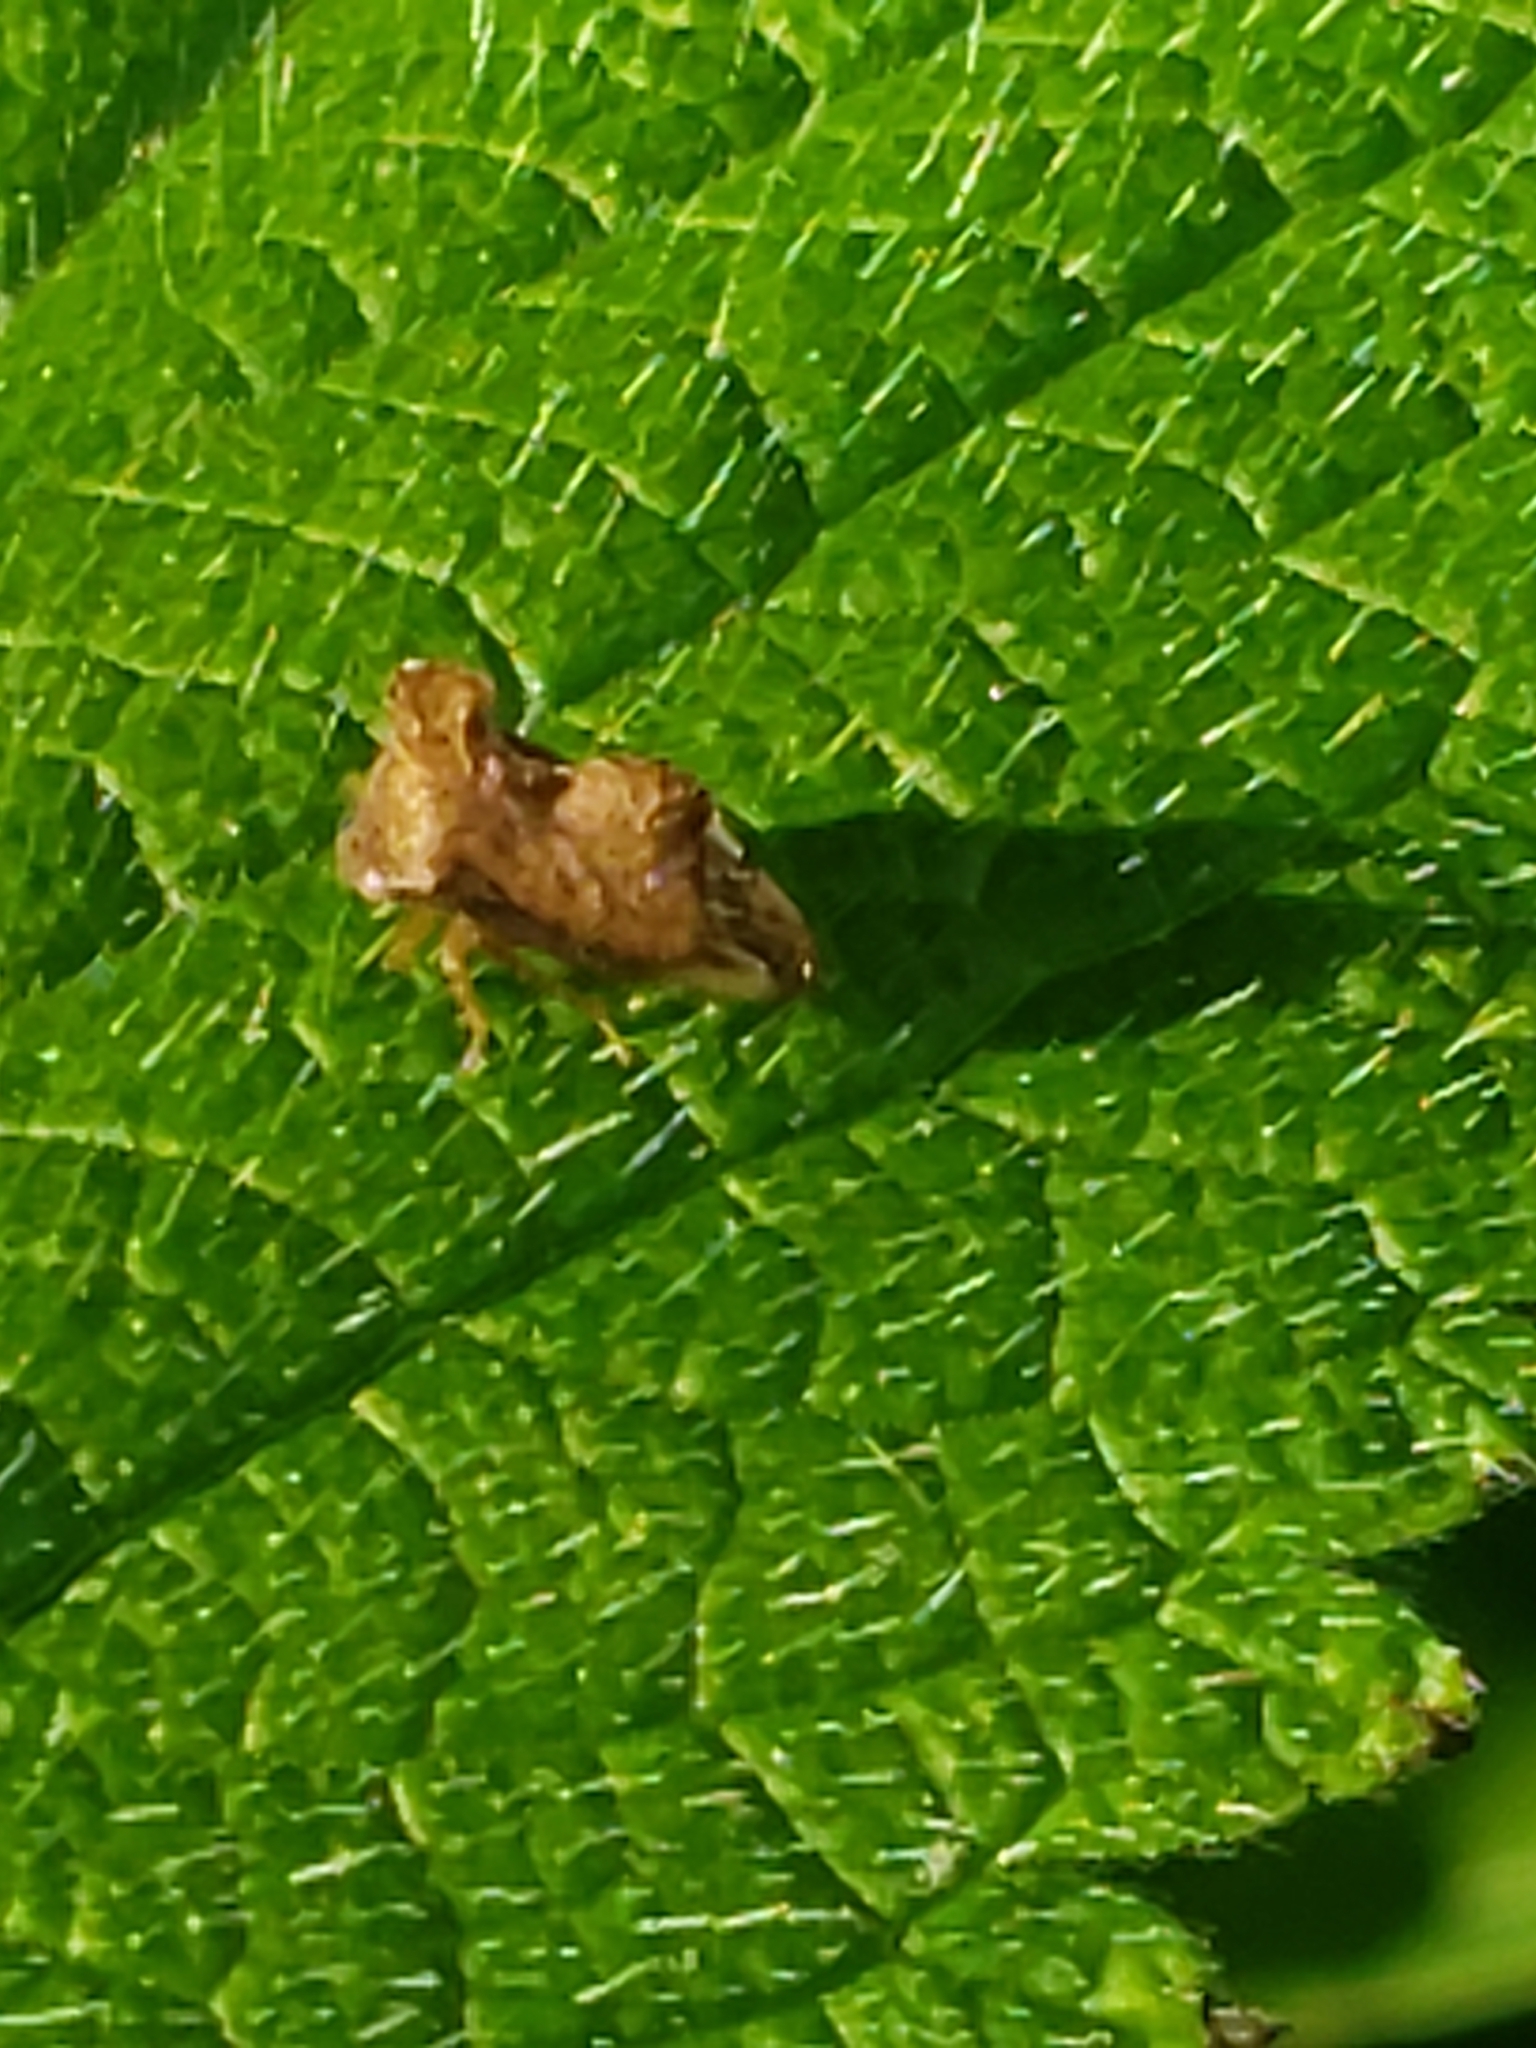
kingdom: Animalia
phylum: Arthropoda
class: Insecta
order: Hemiptera
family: Membracidae
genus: Entylia
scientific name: Entylia carinata
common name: Keeled treehopper
